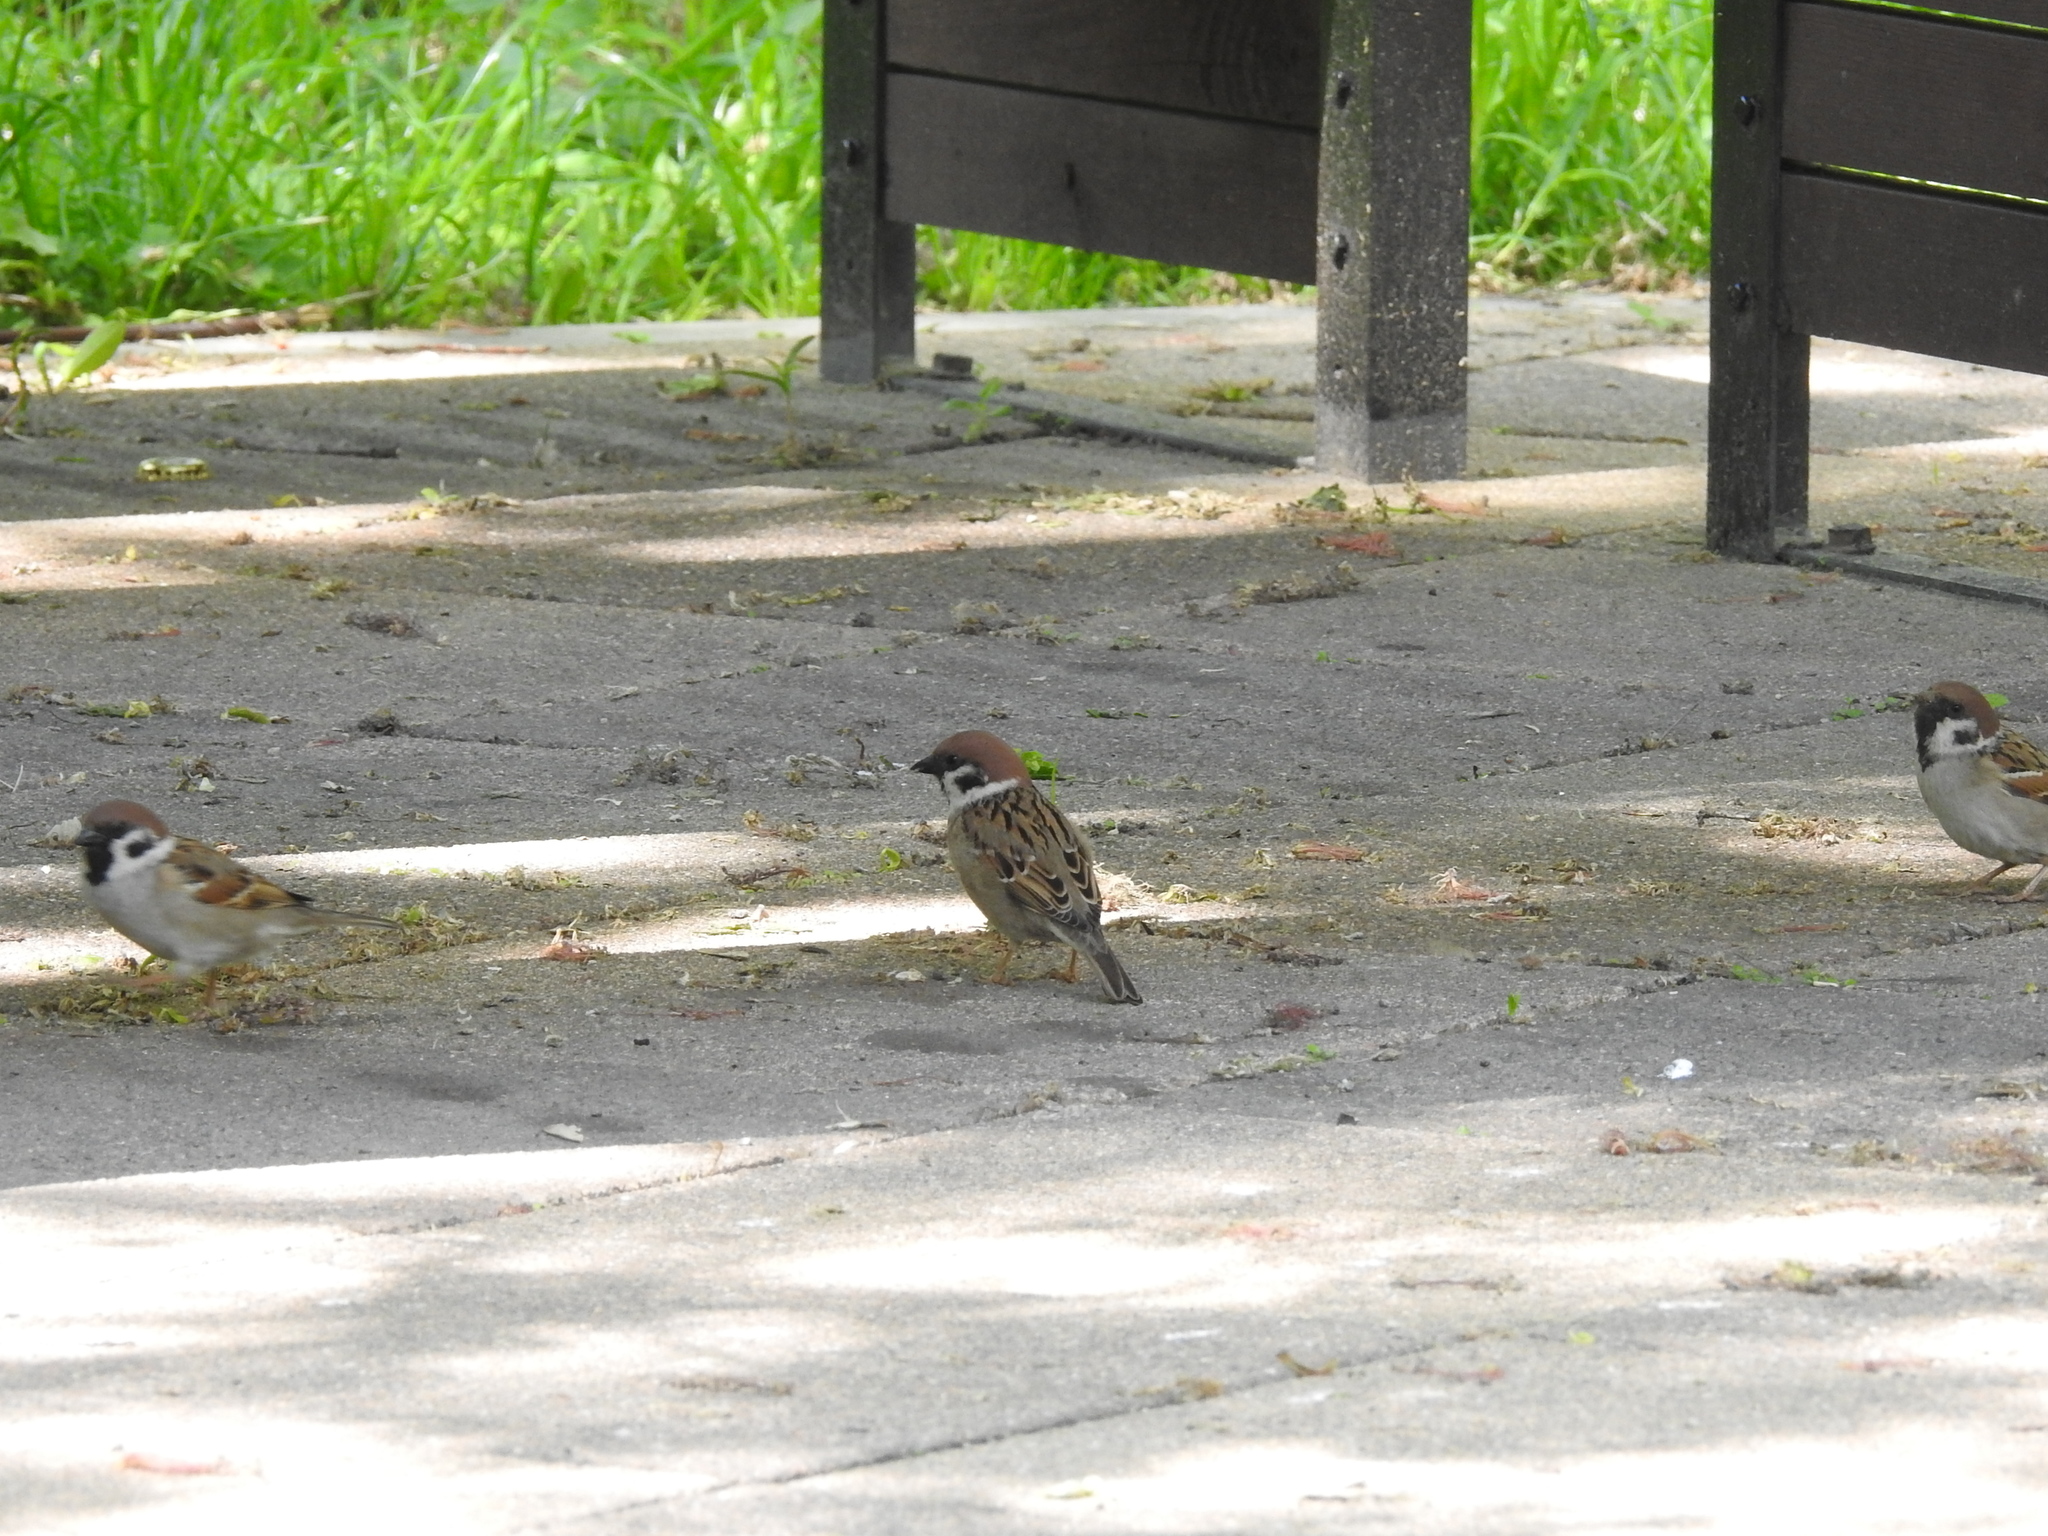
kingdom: Animalia
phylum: Chordata
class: Aves
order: Passeriformes
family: Passeridae
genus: Passer
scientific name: Passer montanus
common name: Eurasian tree sparrow
